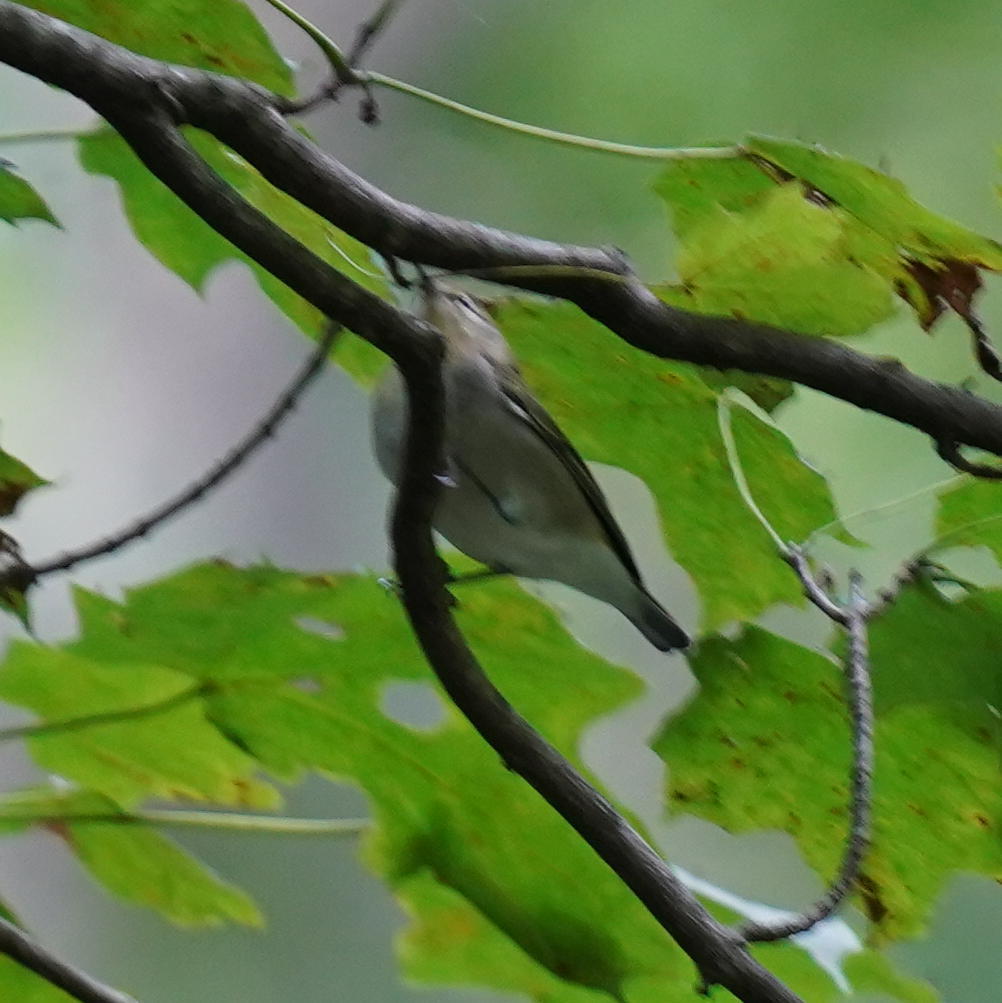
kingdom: Animalia
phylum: Chordata
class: Aves
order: Passeriformes
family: Vireonidae
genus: Vireo
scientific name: Vireo olivaceus
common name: Red-eyed vireo
